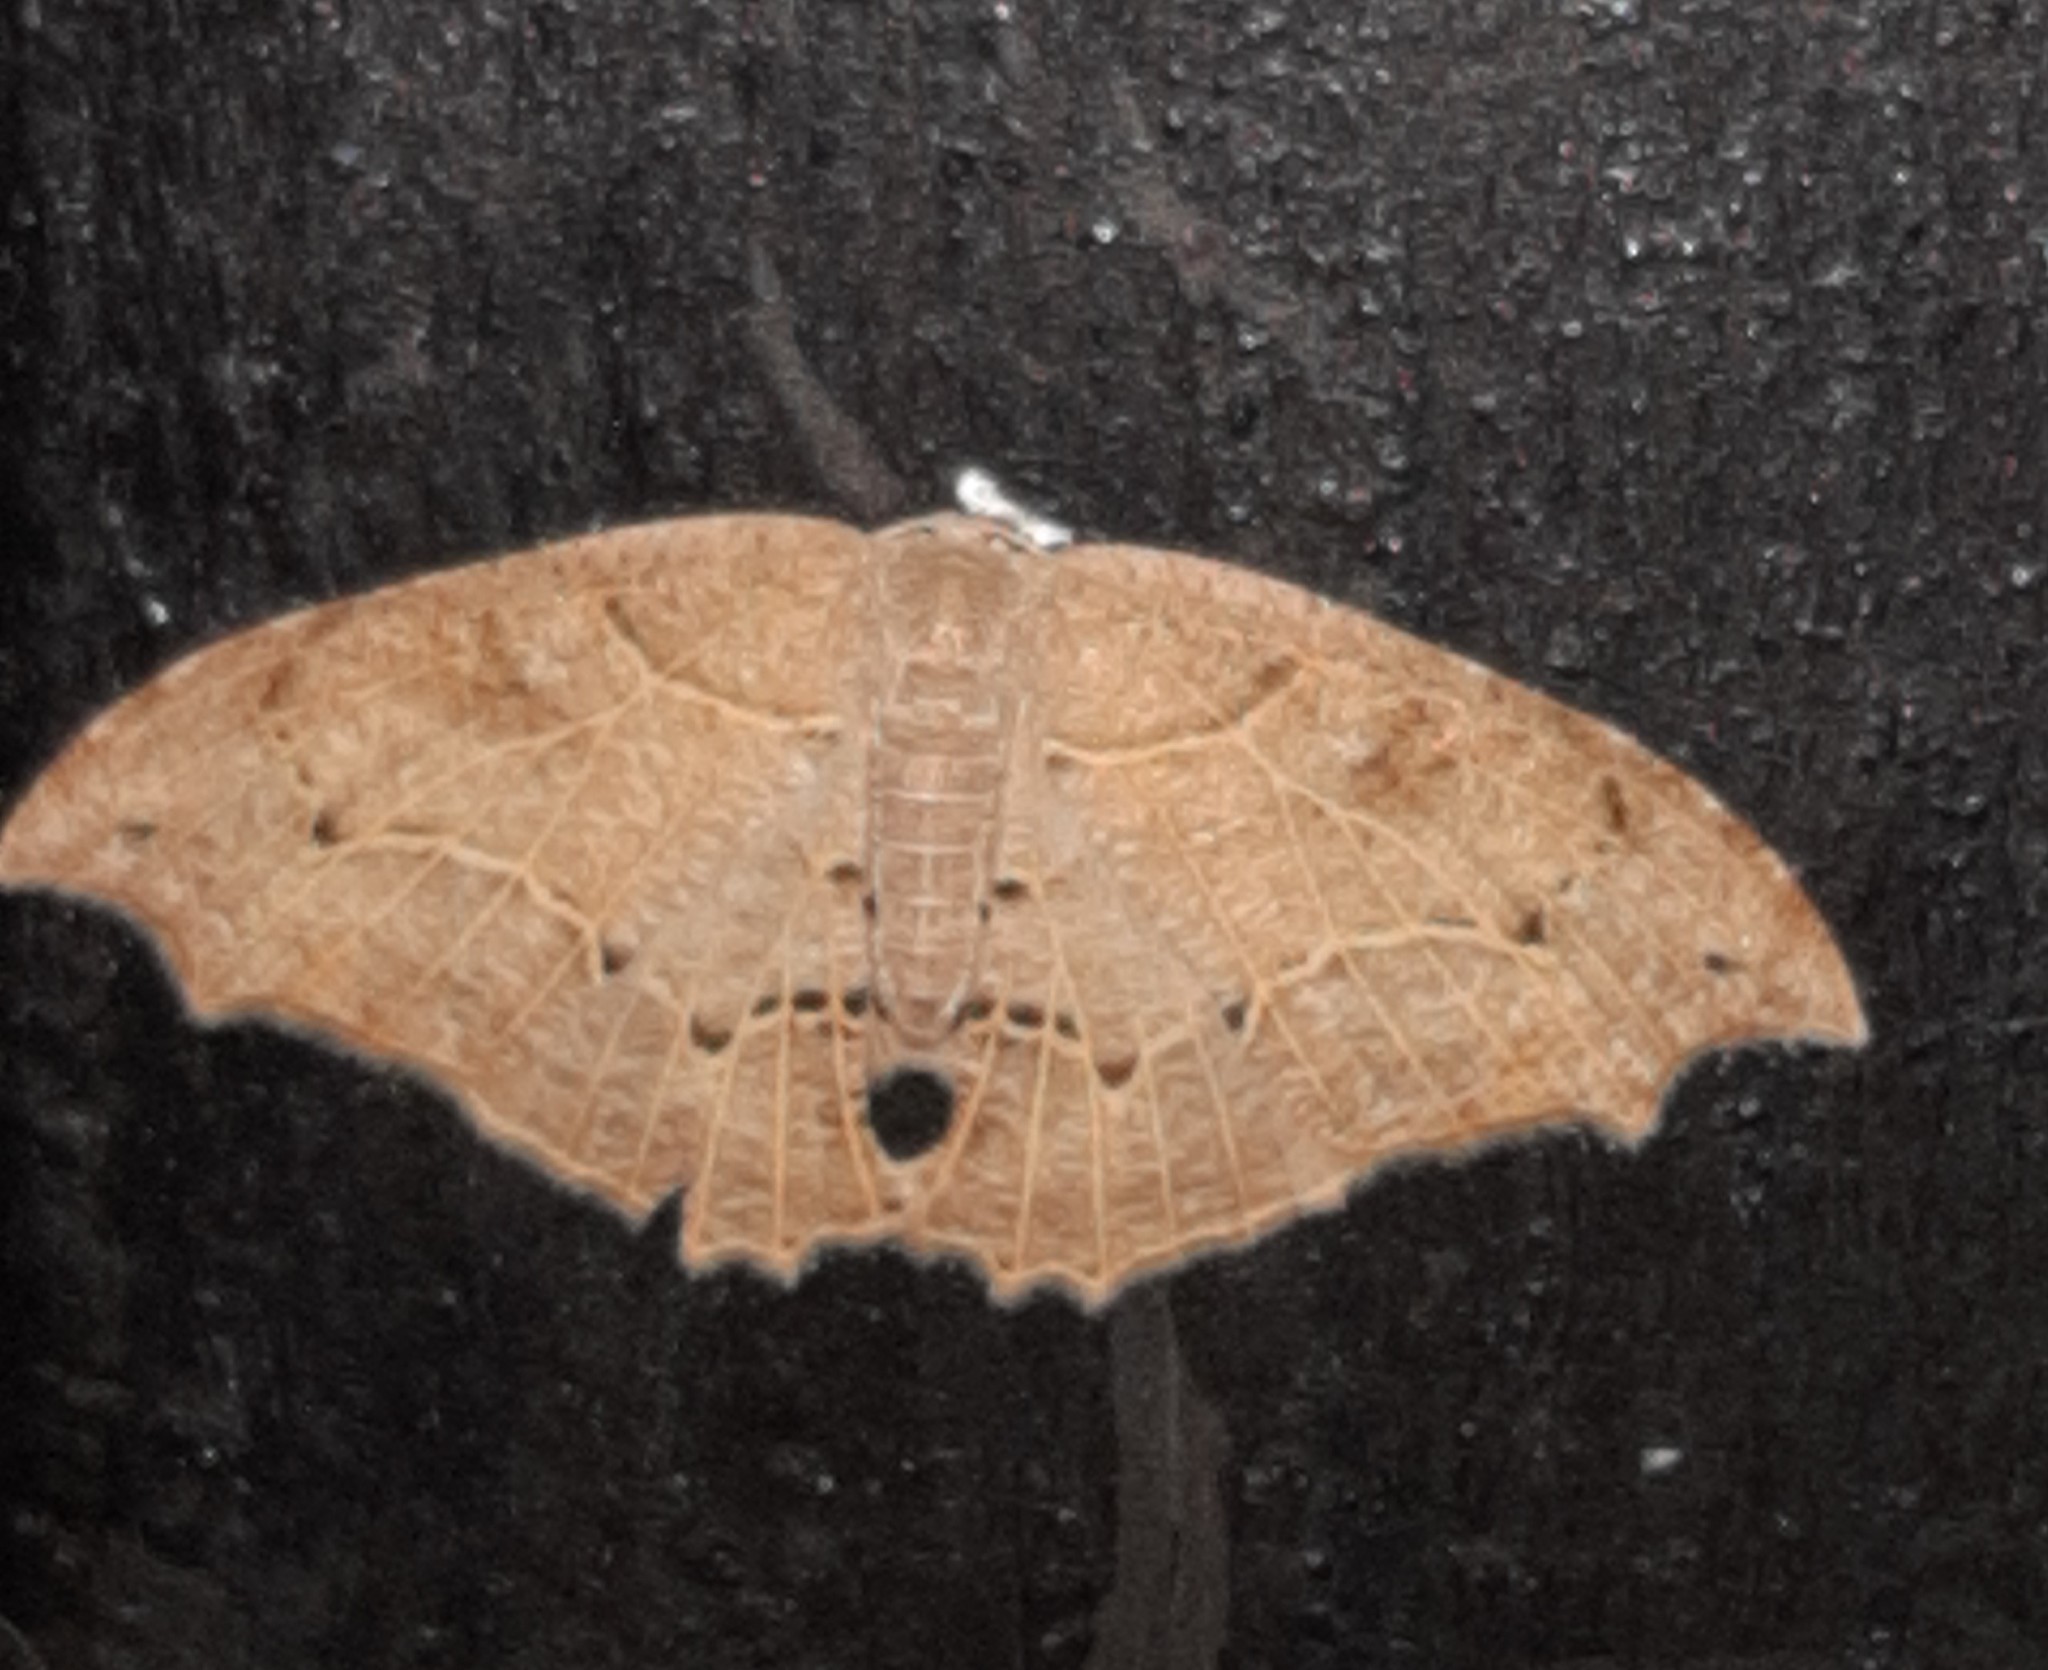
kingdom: Animalia
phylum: Arthropoda
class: Insecta
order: Lepidoptera
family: Uraniidae
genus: Coelurotricha
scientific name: Coelurotricha curvilinea
